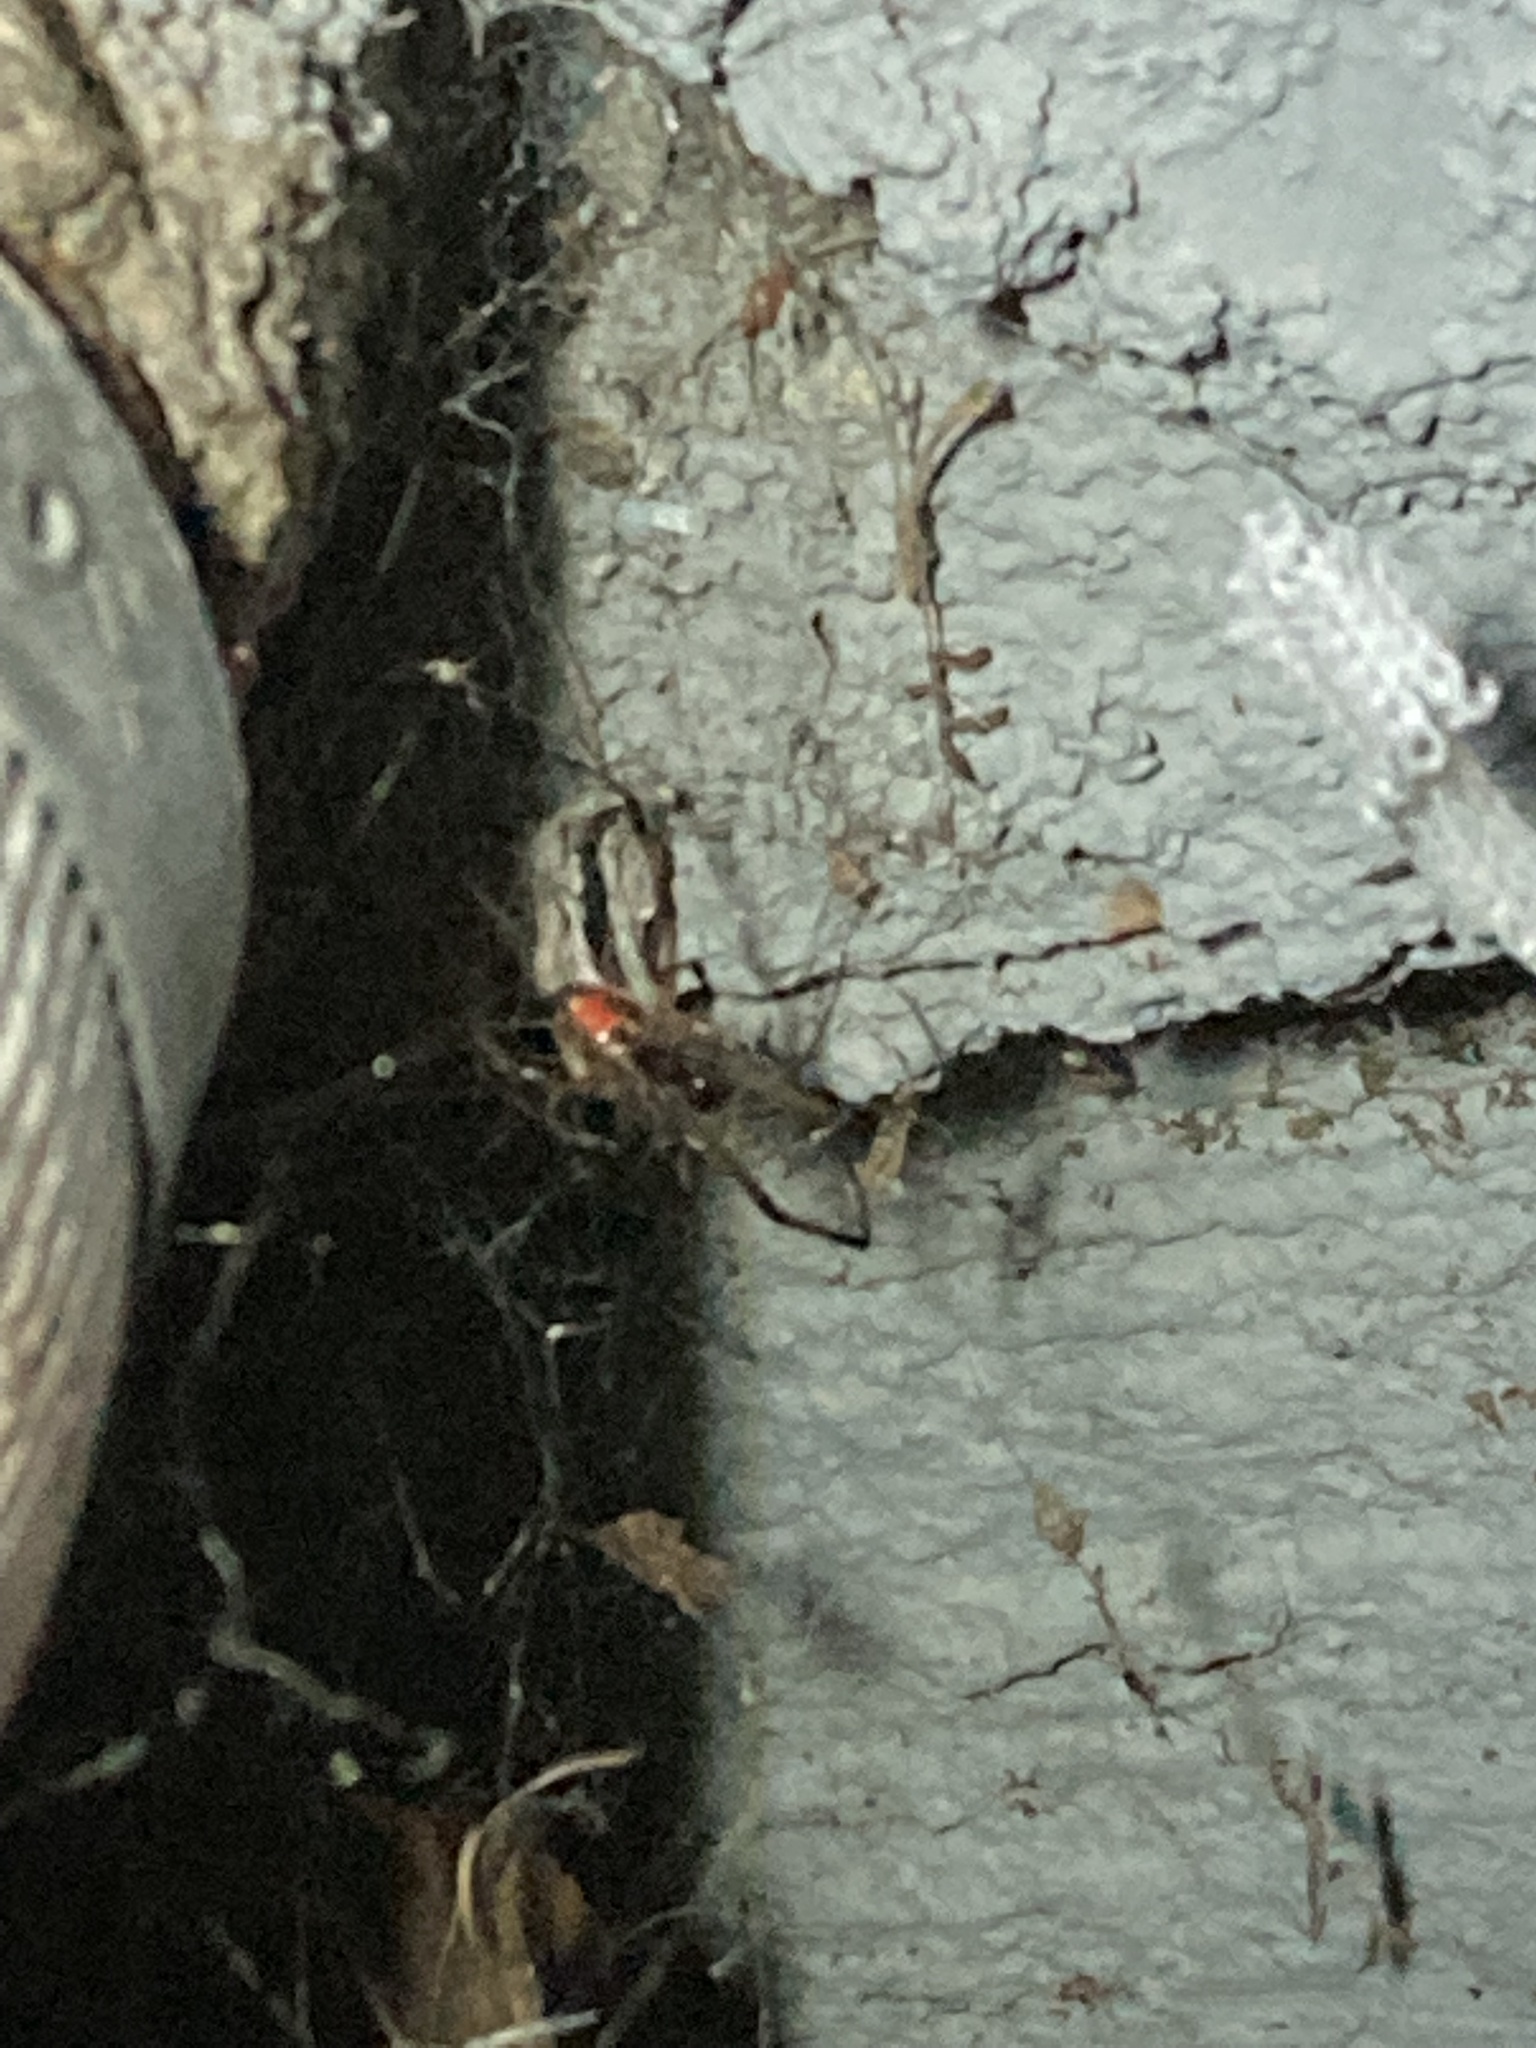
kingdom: Animalia
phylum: Arthropoda
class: Arachnida
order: Araneae
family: Theridiidae
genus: Latrodectus
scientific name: Latrodectus geometricus
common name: Brown widow spider
